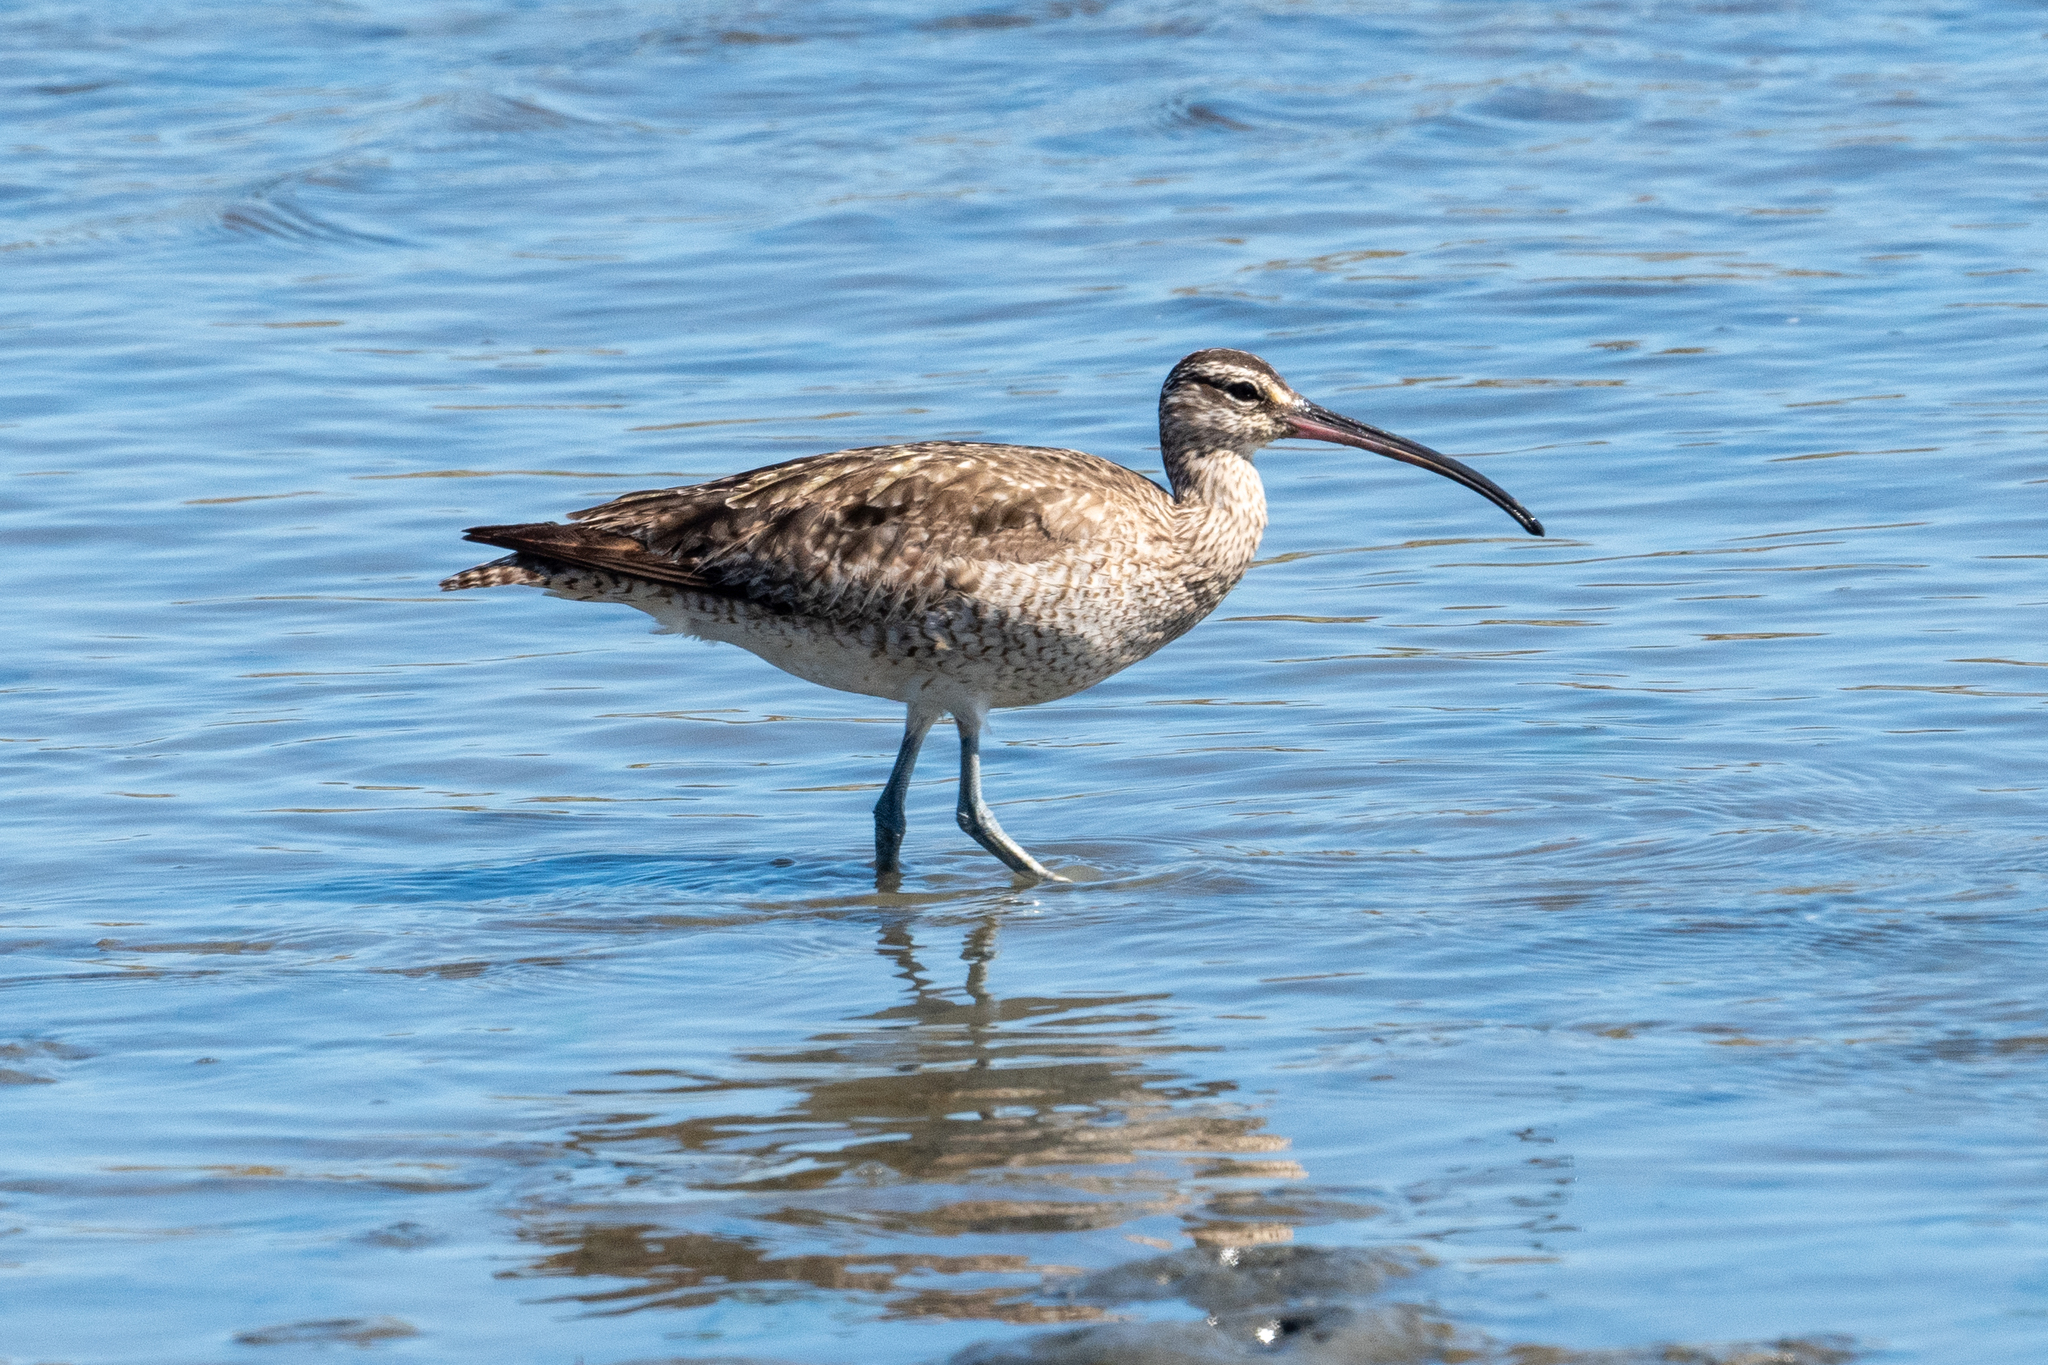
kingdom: Animalia
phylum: Chordata
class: Aves
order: Charadriiformes
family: Scolopacidae
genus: Numenius
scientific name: Numenius phaeopus
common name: Whimbrel
